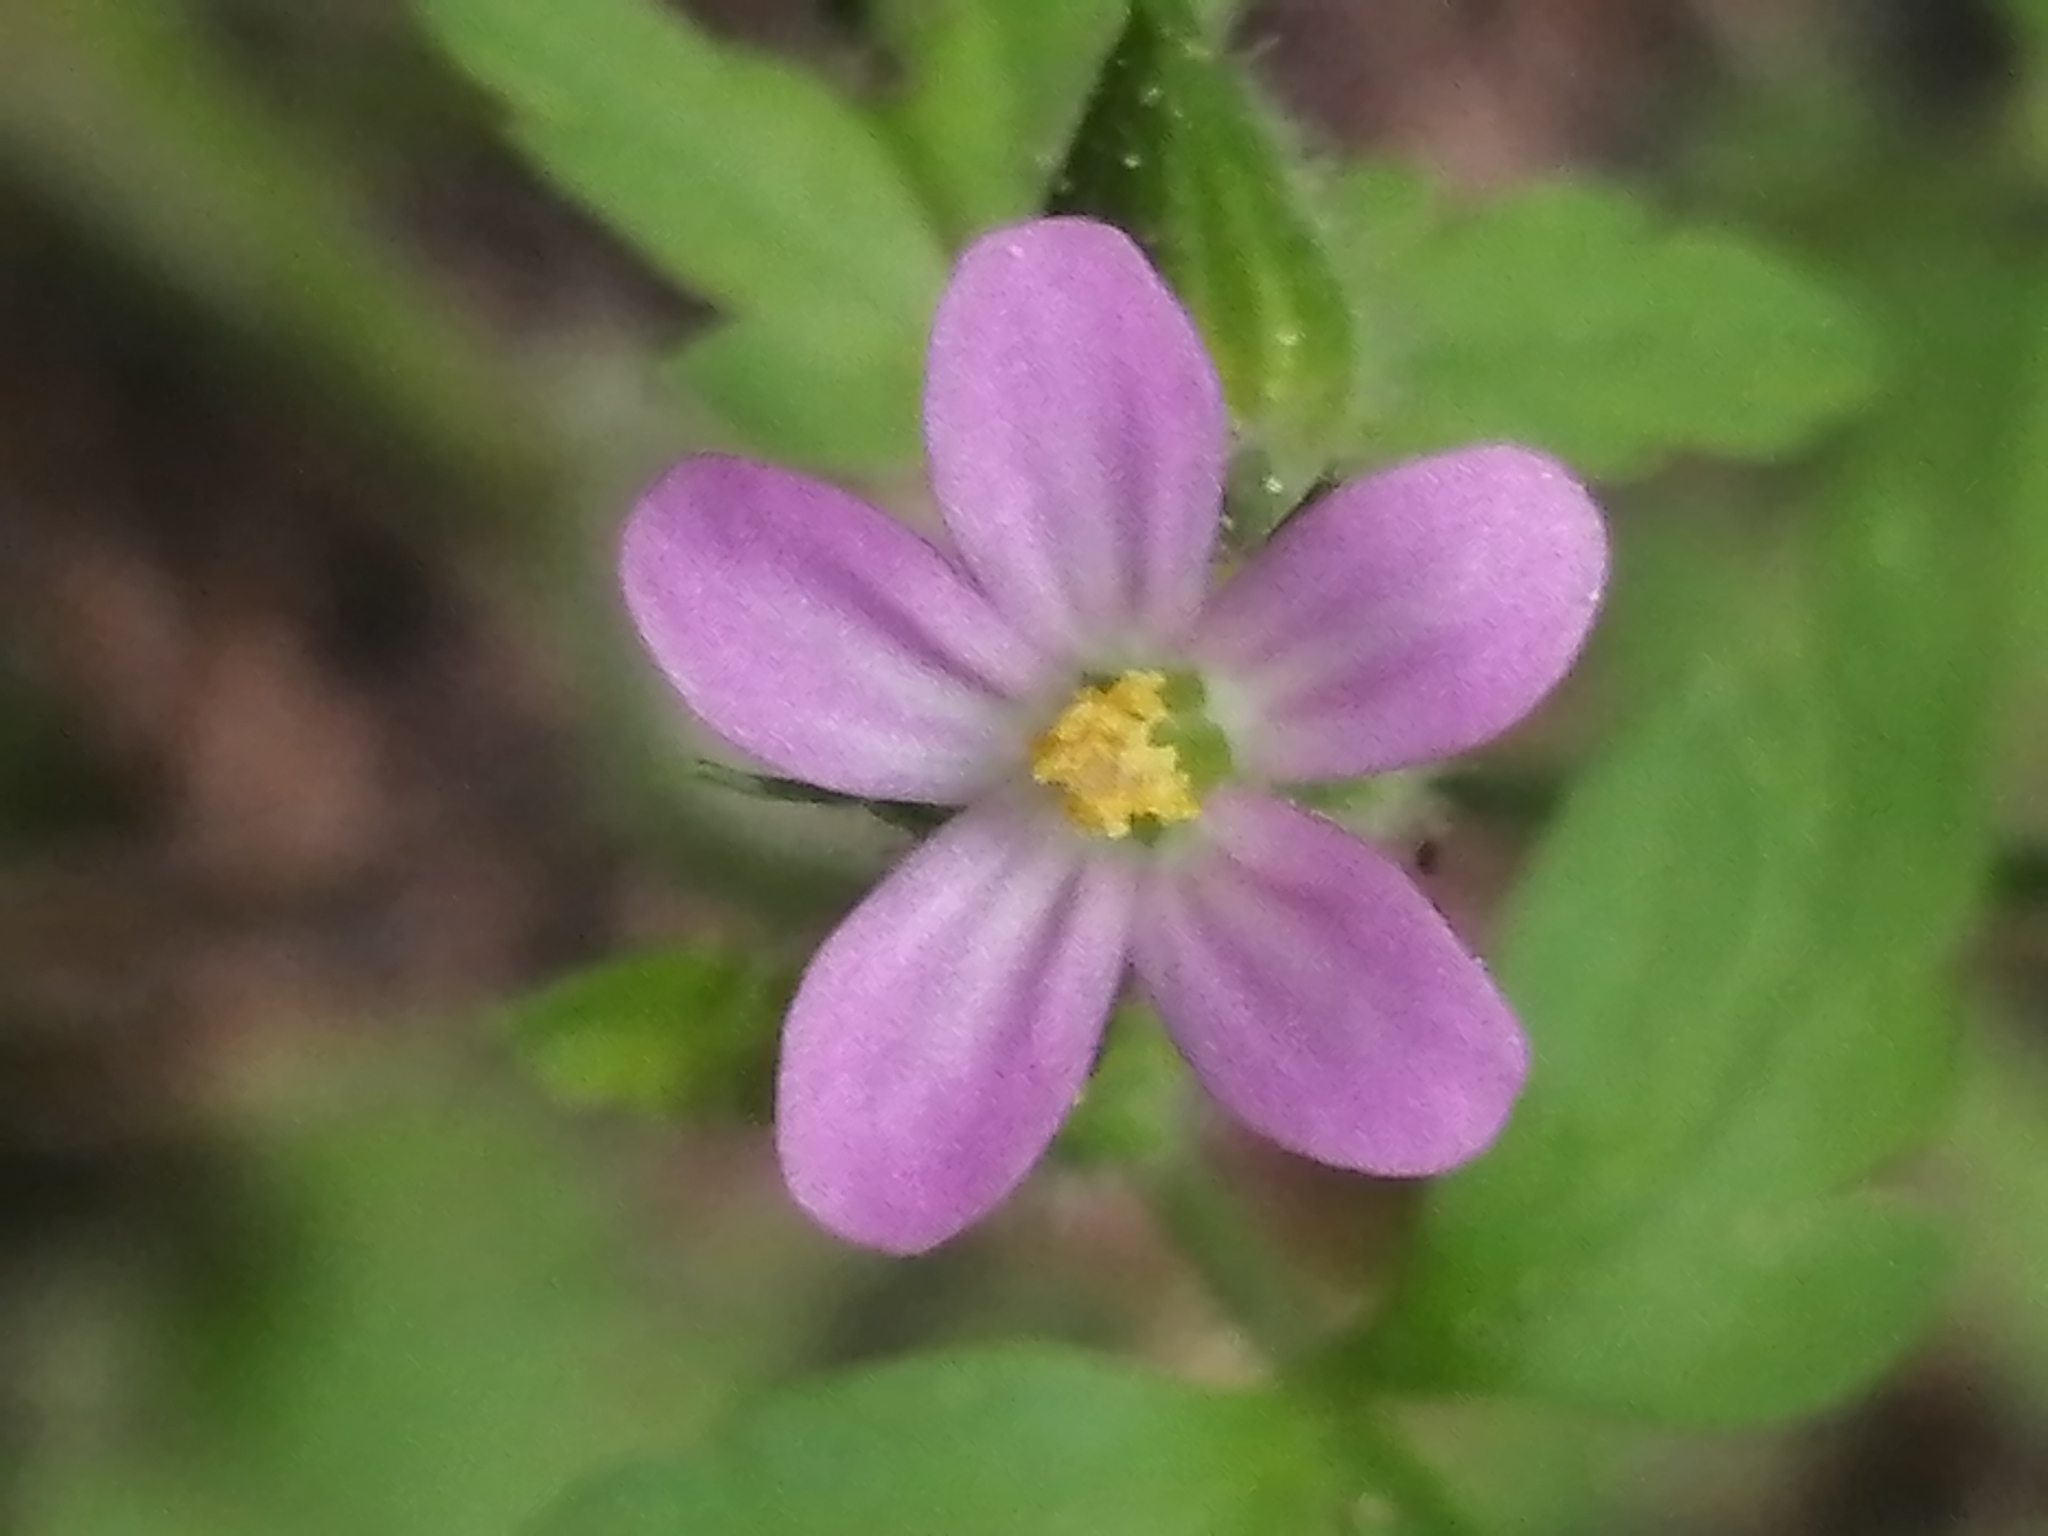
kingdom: Plantae
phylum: Tracheophyta
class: Magnoliopsida
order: Geraniales
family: Geraniaceae
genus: Geranium
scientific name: Geranium robertianum
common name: Herb-robert
